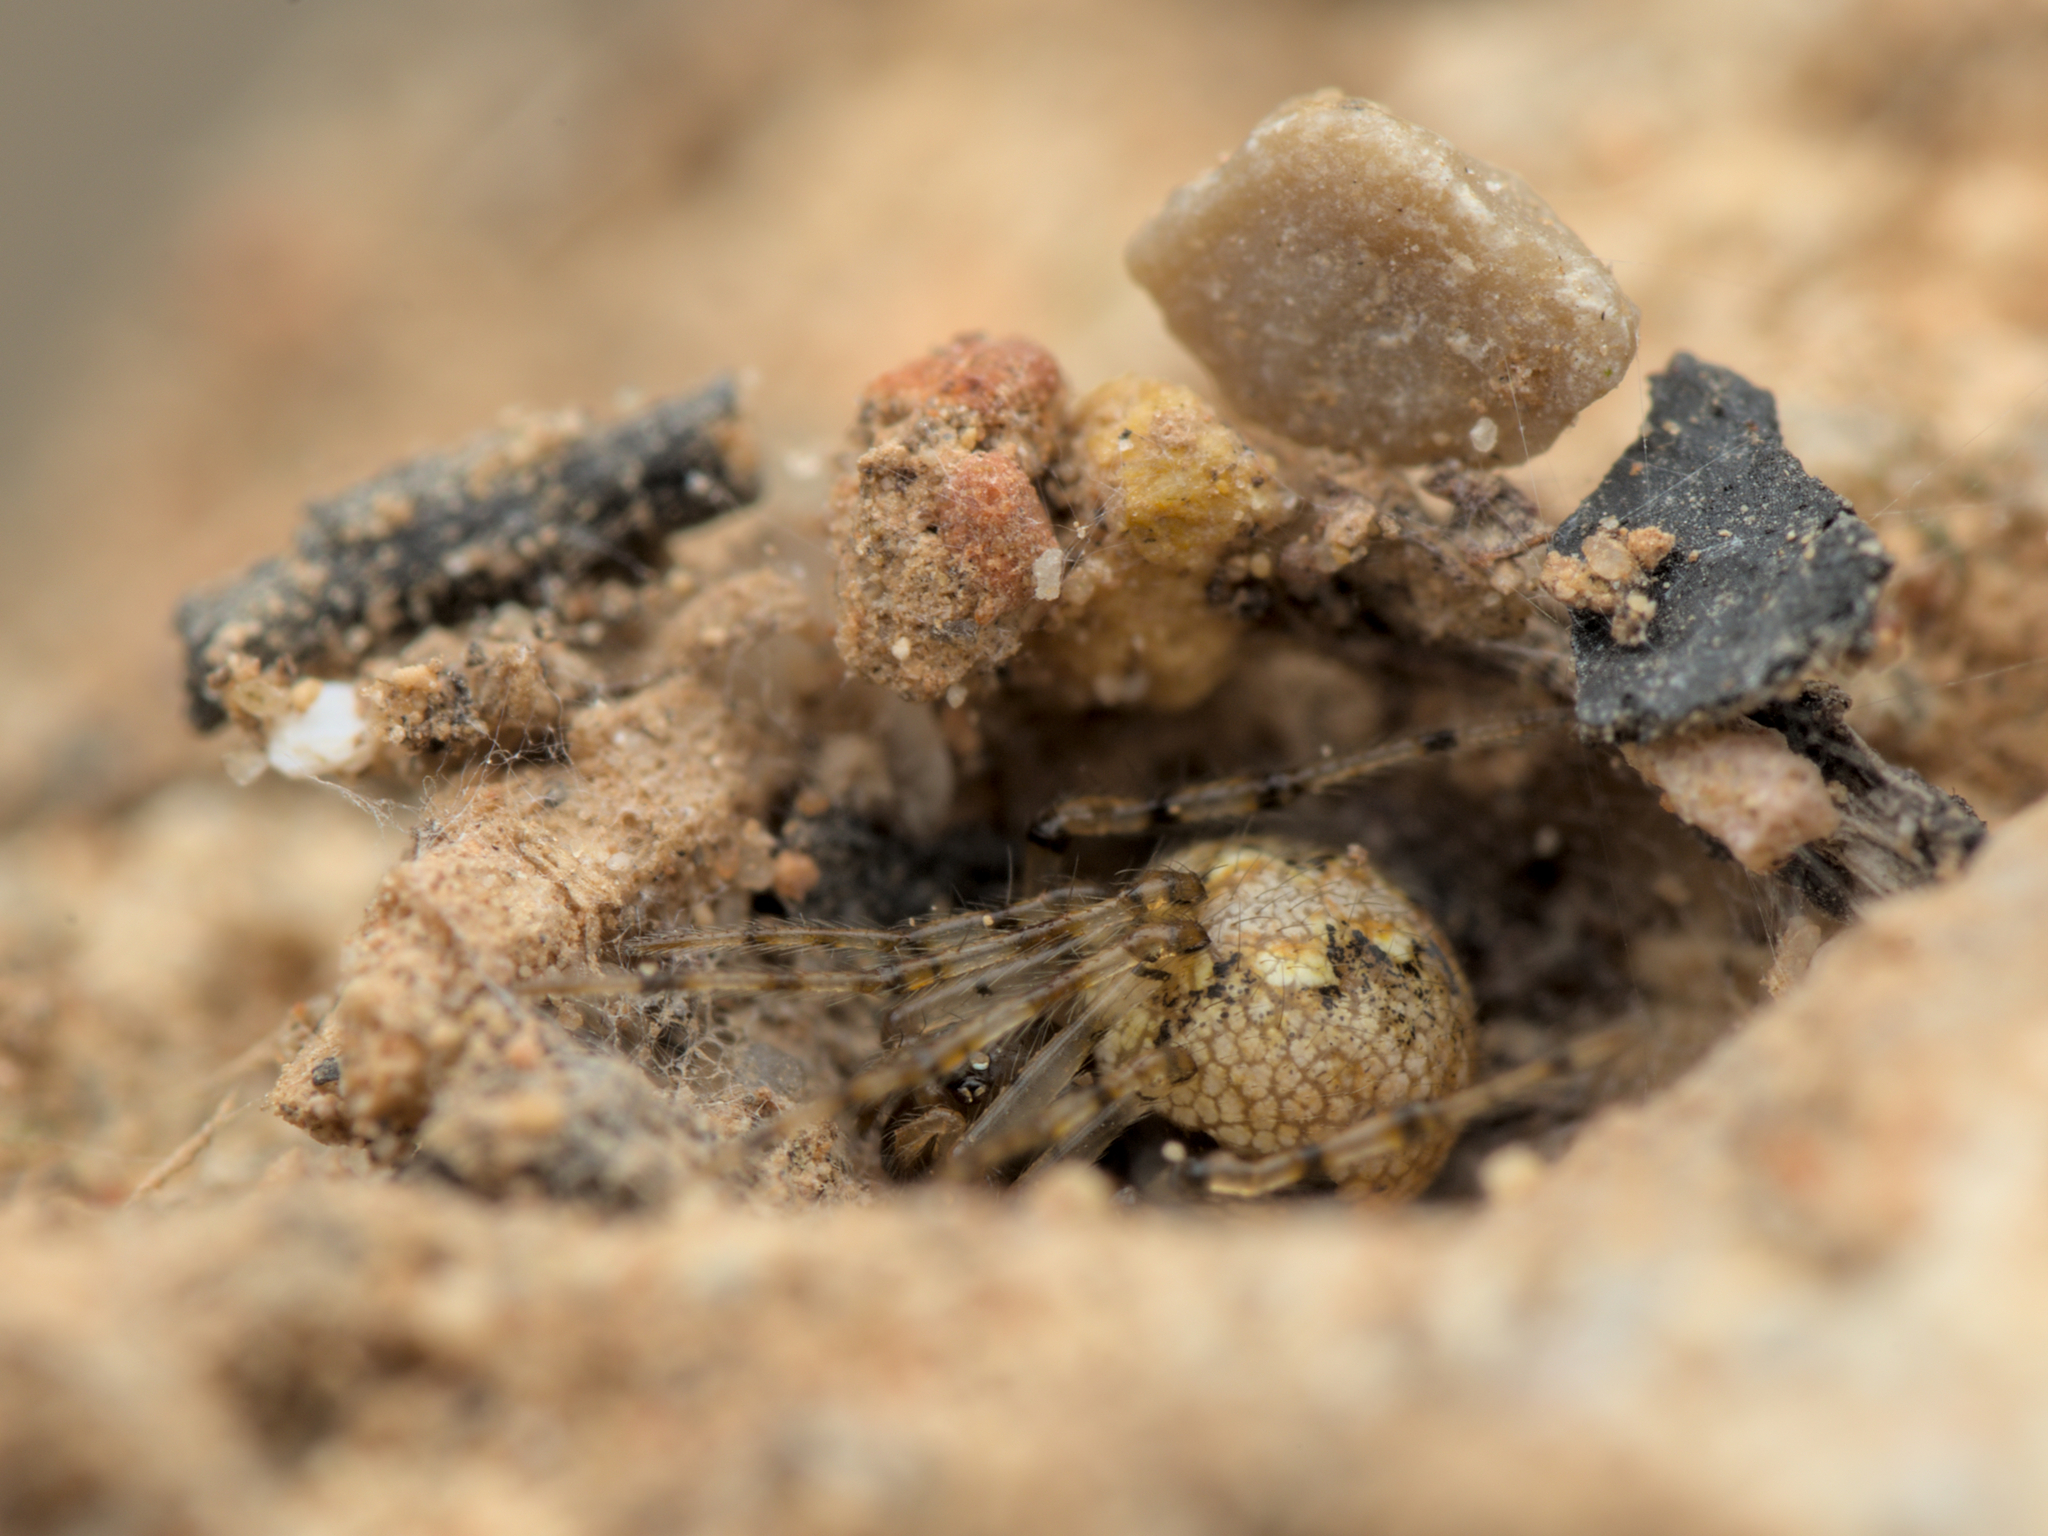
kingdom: Animalia
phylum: Arthropoda
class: Arachnida
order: Araneae
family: Theridiidae
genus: Theridion
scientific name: Theridion hannoniae
